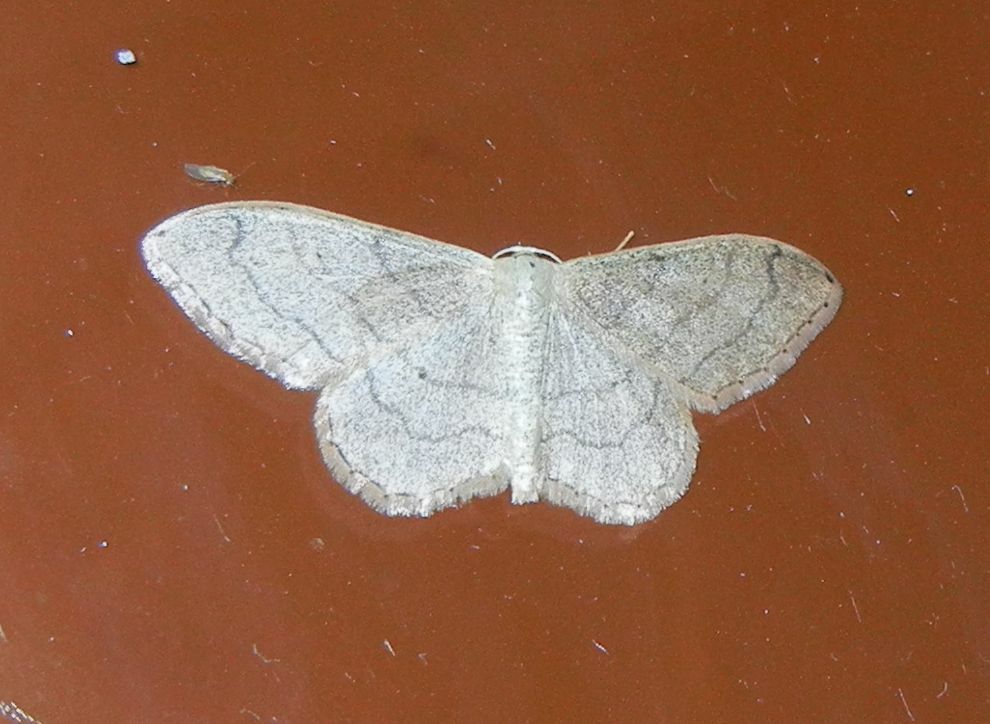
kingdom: Animalia
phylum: Arthropoda
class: Insecta
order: Lepidoptera
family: Geometridae
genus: Idaea
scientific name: Idaea aversata
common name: Riband wave
